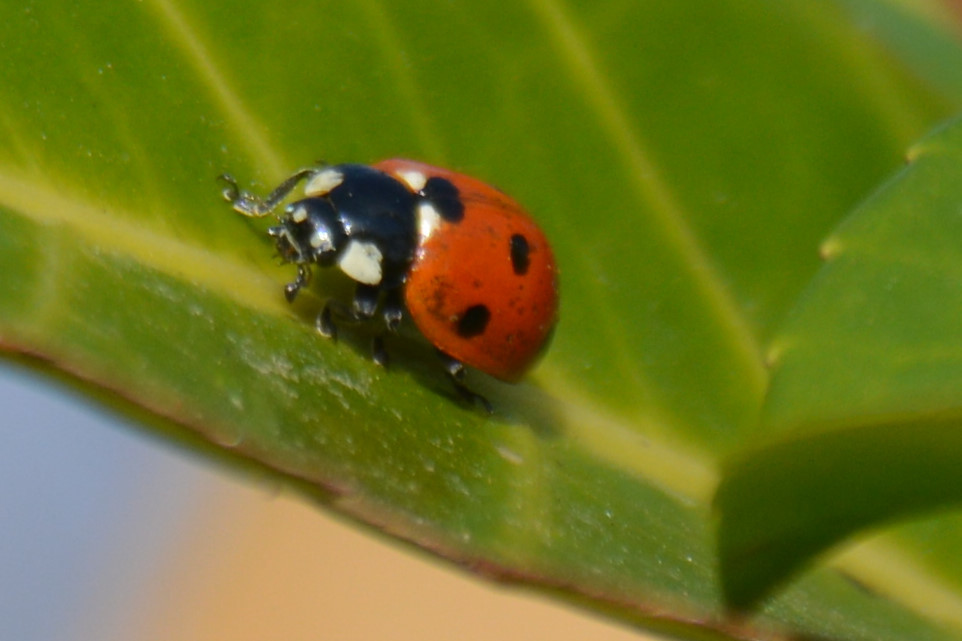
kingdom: Animalia
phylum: Arthropoda
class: Insecta
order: Coleoptera
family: Coccinellidae
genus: Coccinella
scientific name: Coccinella septempunctata
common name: Sevenspotted lady beetle
